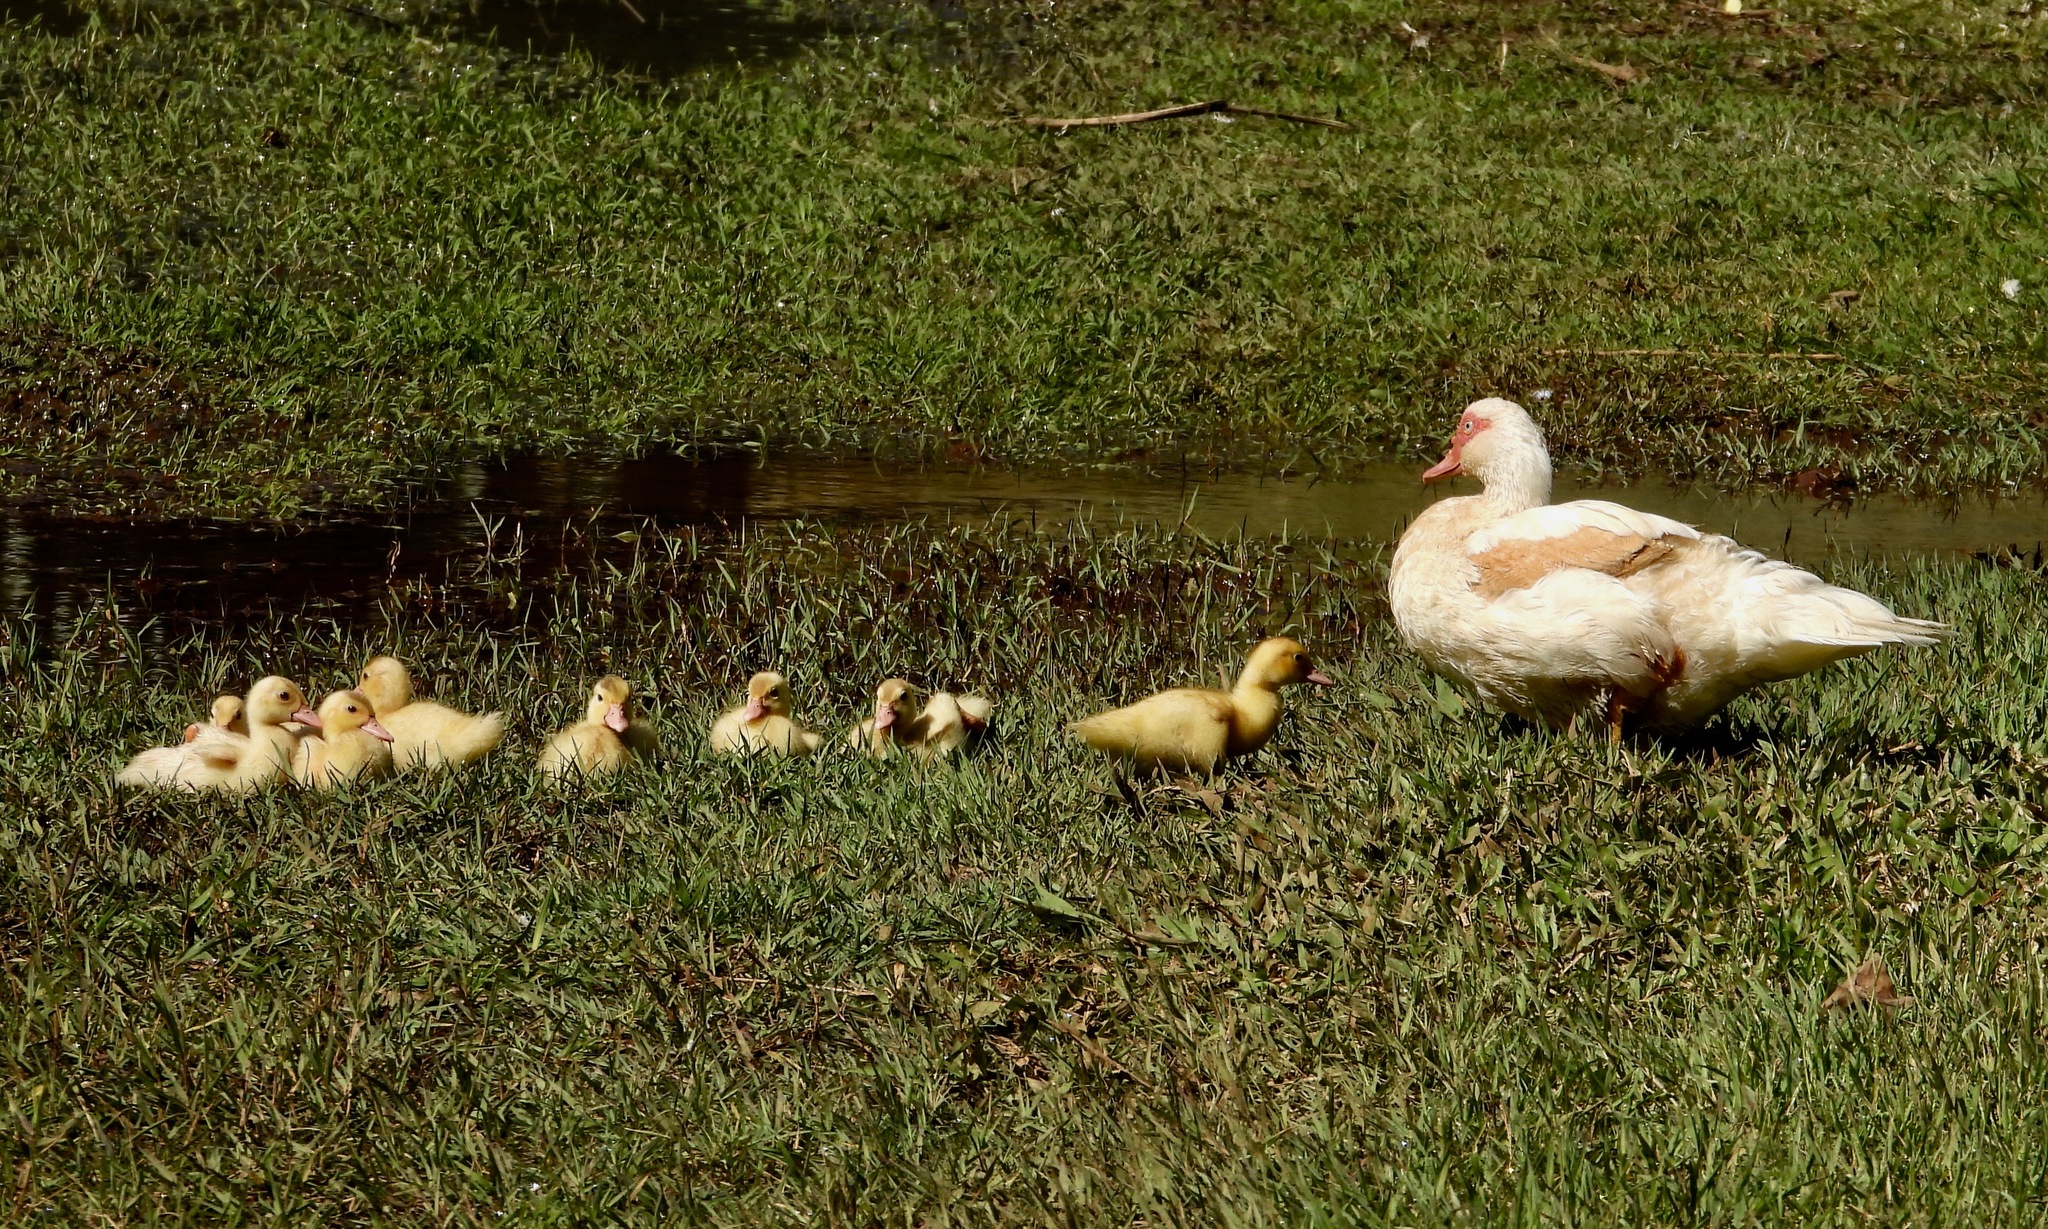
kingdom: Animalia
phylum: Chordata
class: Aves
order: Anseriformes
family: Anatidae
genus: Cairina
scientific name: Cairina moschata
